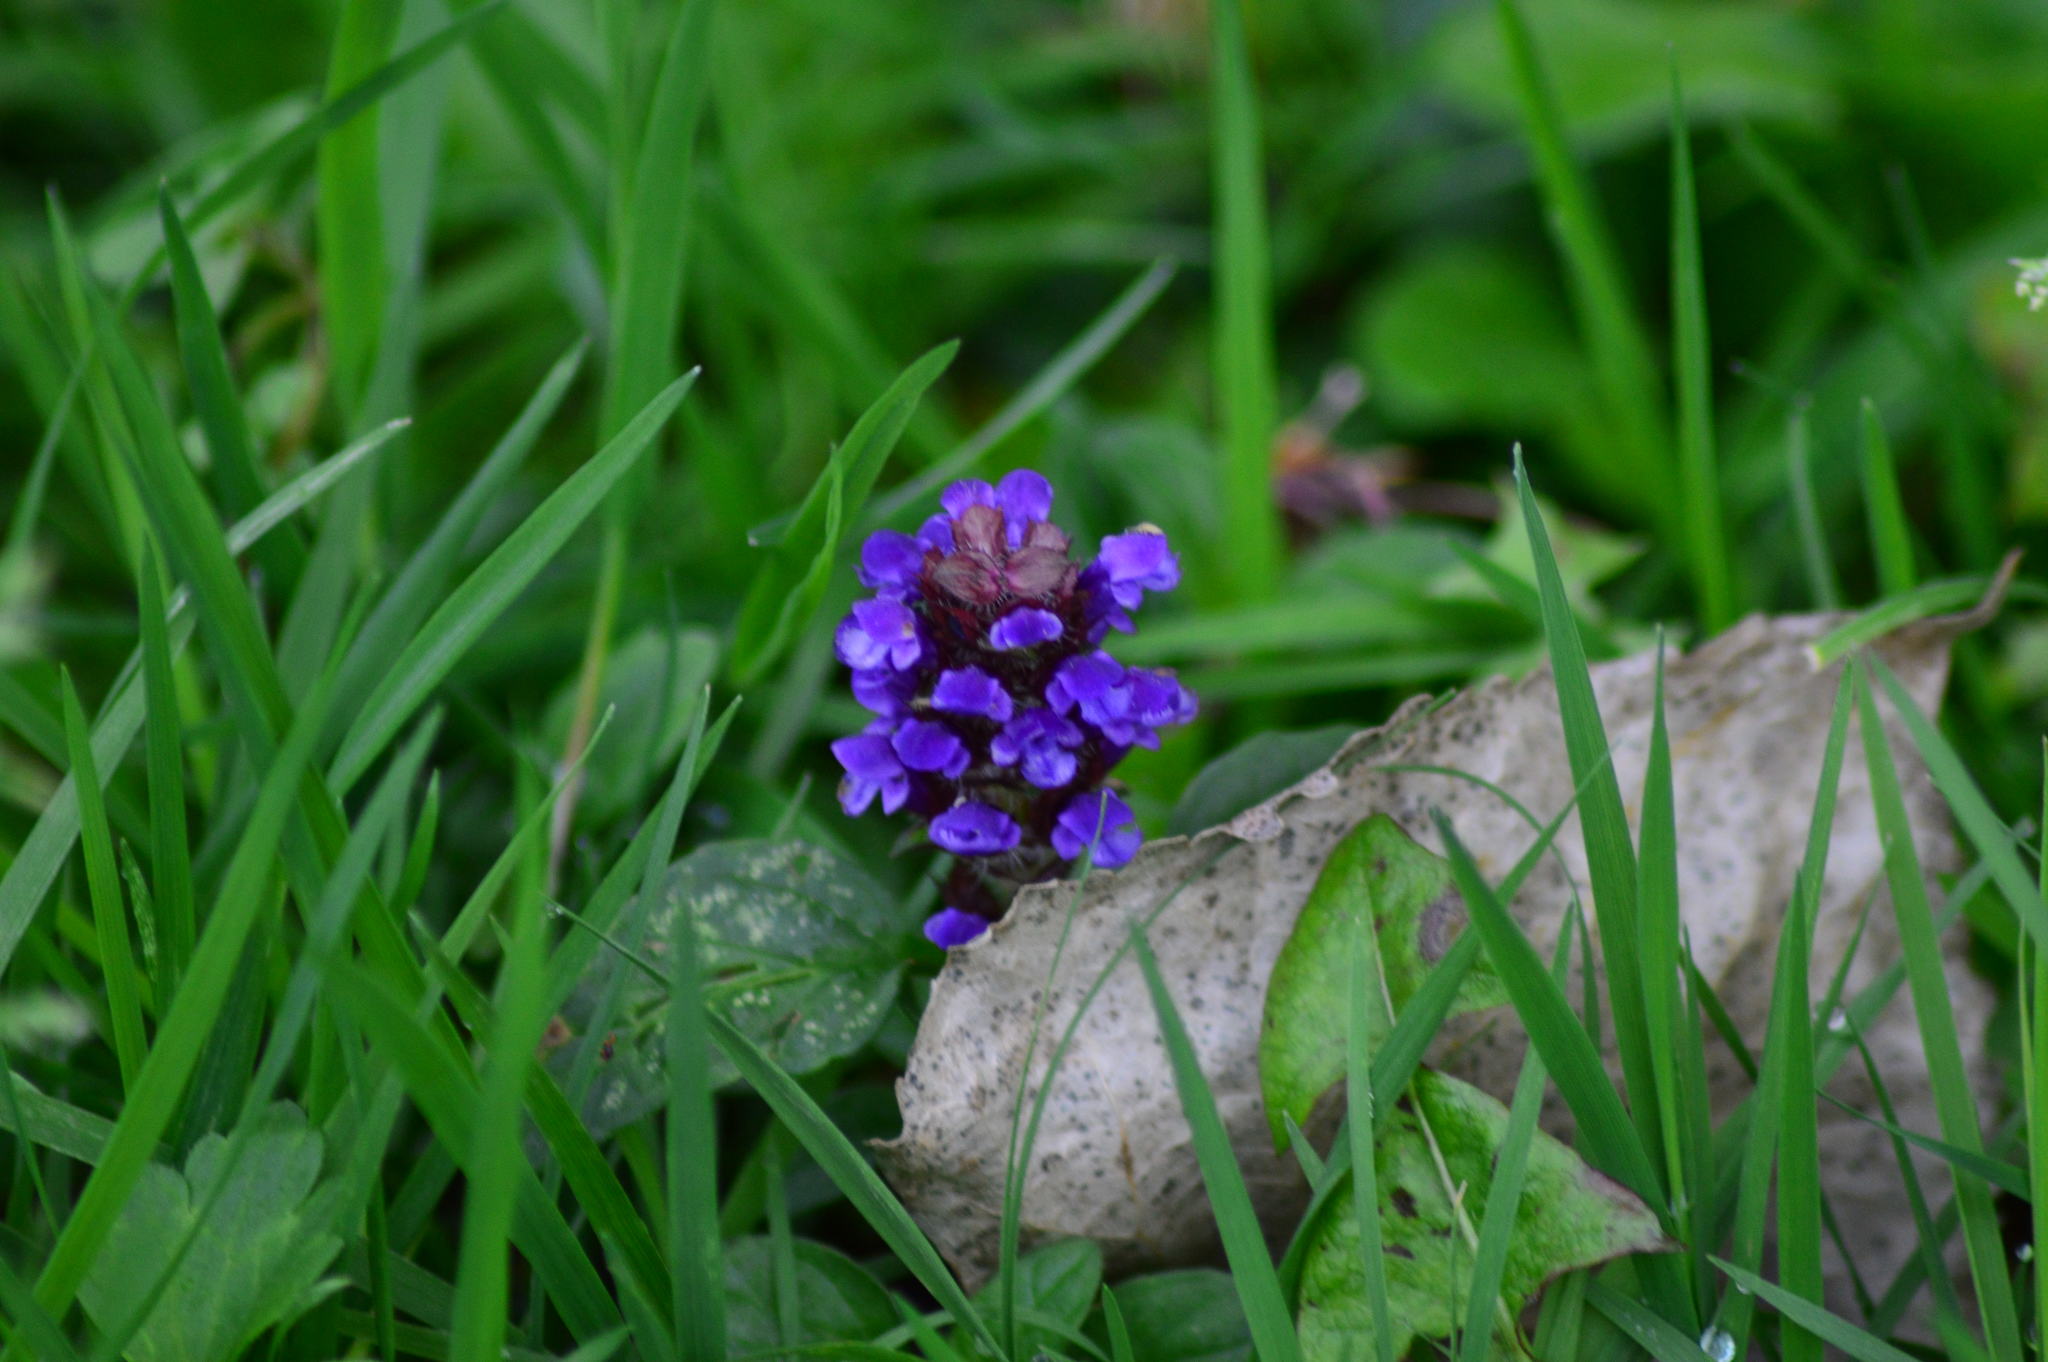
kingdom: Plantae
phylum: Tracheophyta
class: Magnoliopsida
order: Lamiales
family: Lamiaceae
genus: Prunella
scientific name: Prunella vulgaris
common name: Heal-all
